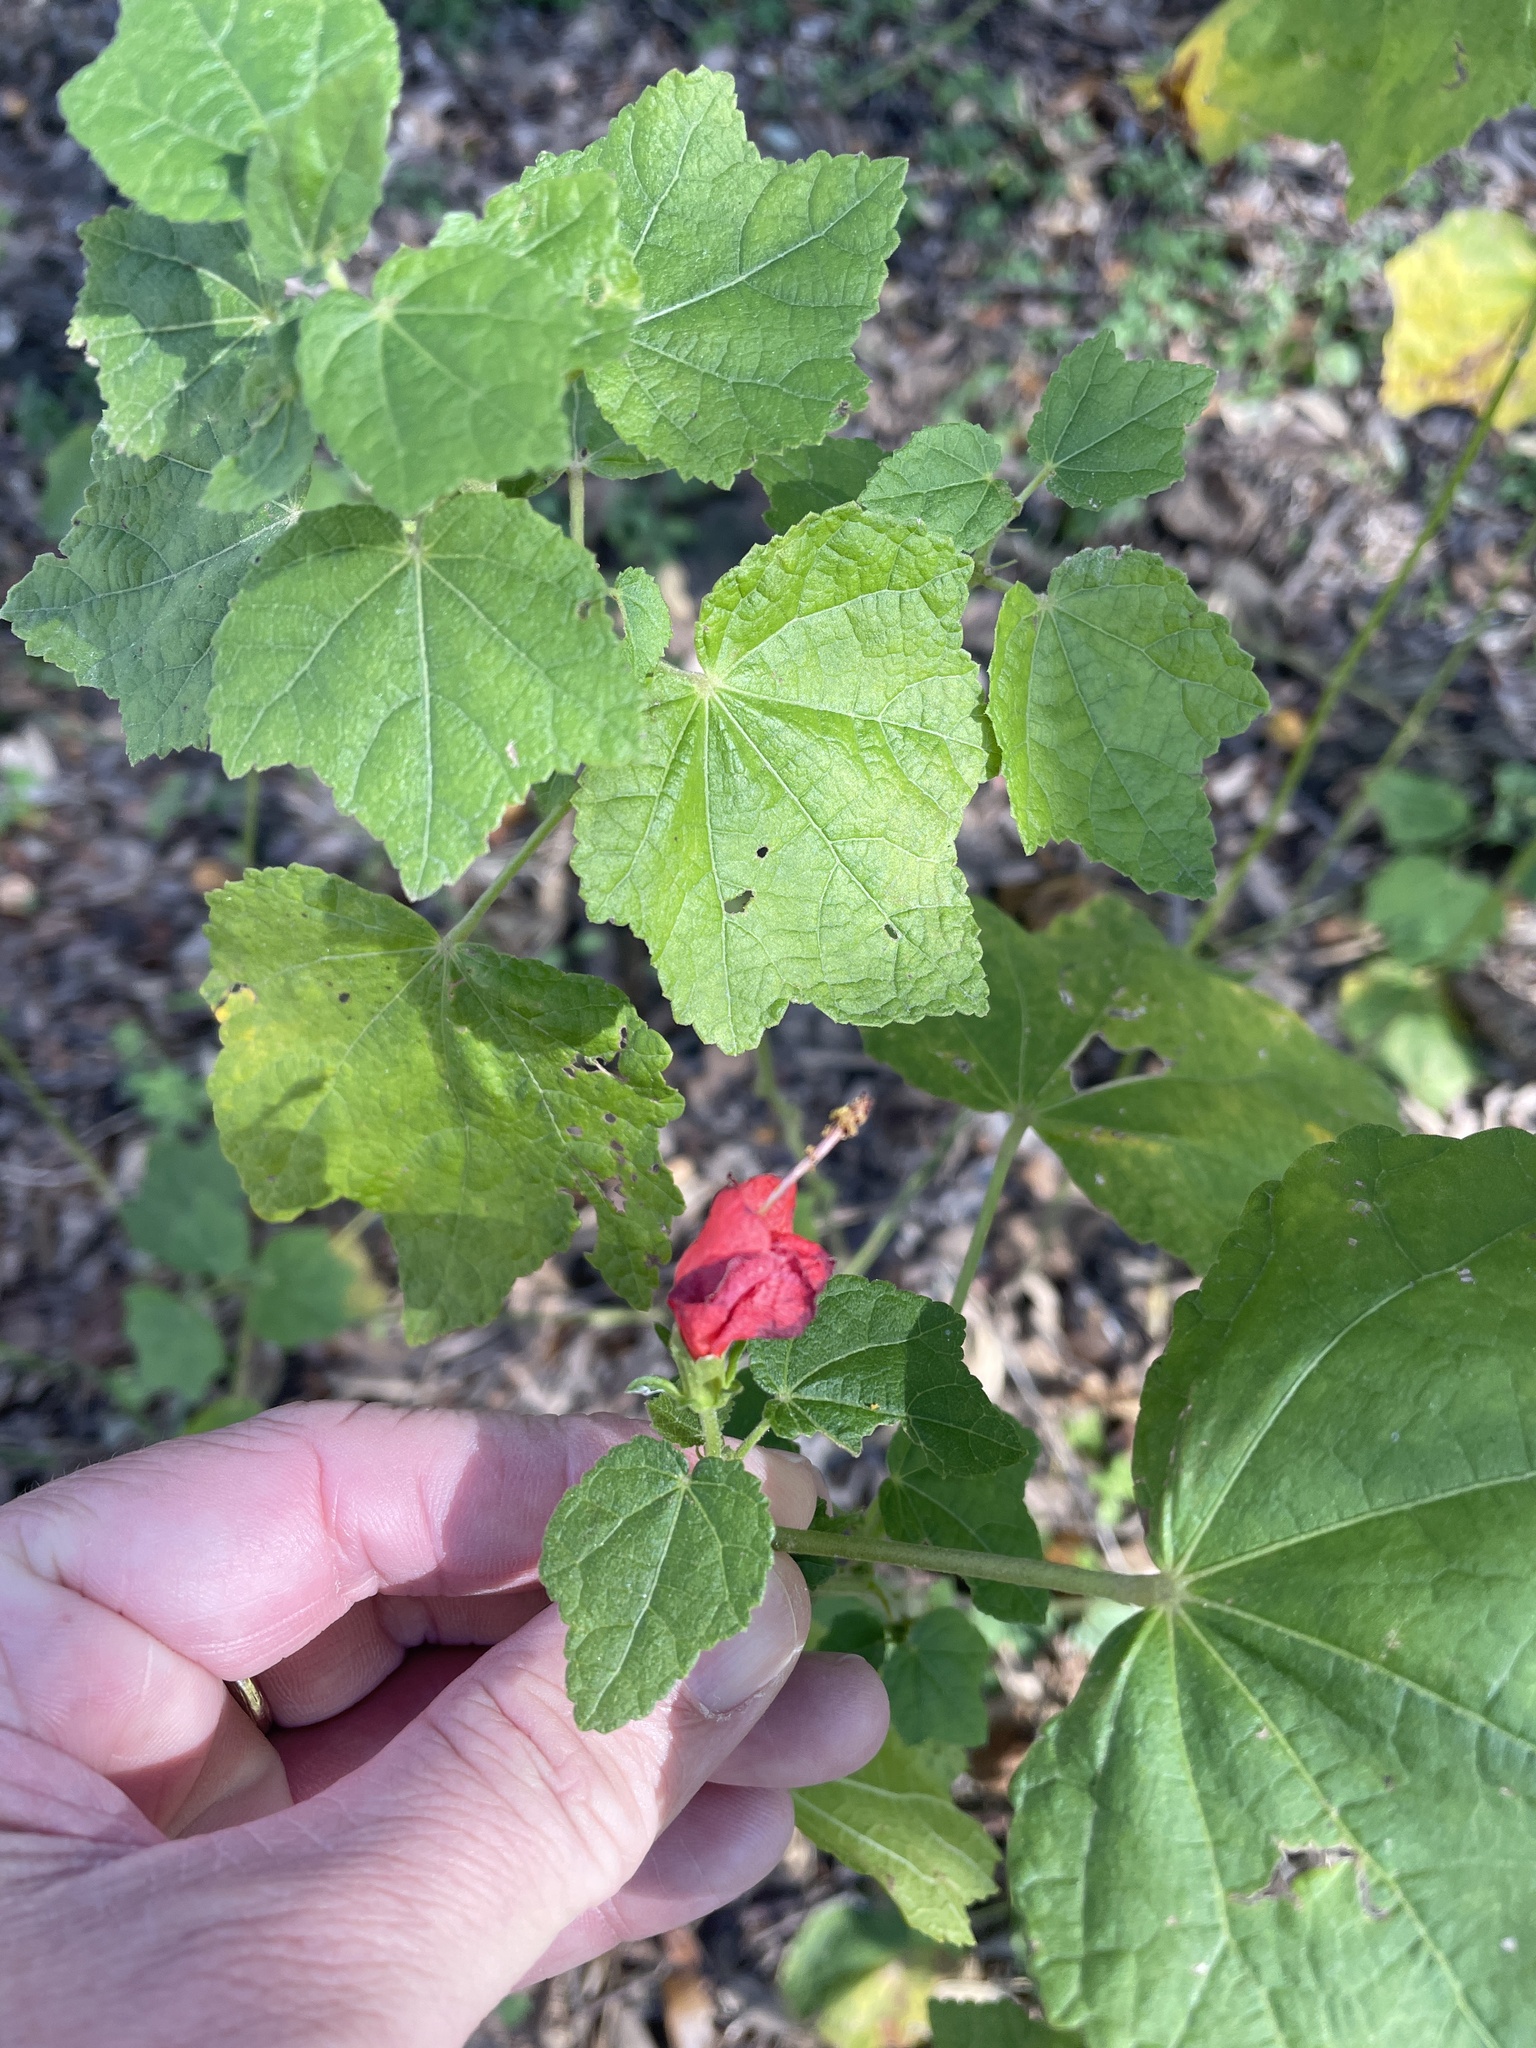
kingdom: Plantae
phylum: Tracheophyta
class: Magnoliopsida
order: Malvales
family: Malvaceae
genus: Malvaviscus
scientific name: Malvaviscus arboreus
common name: Wax mallow
